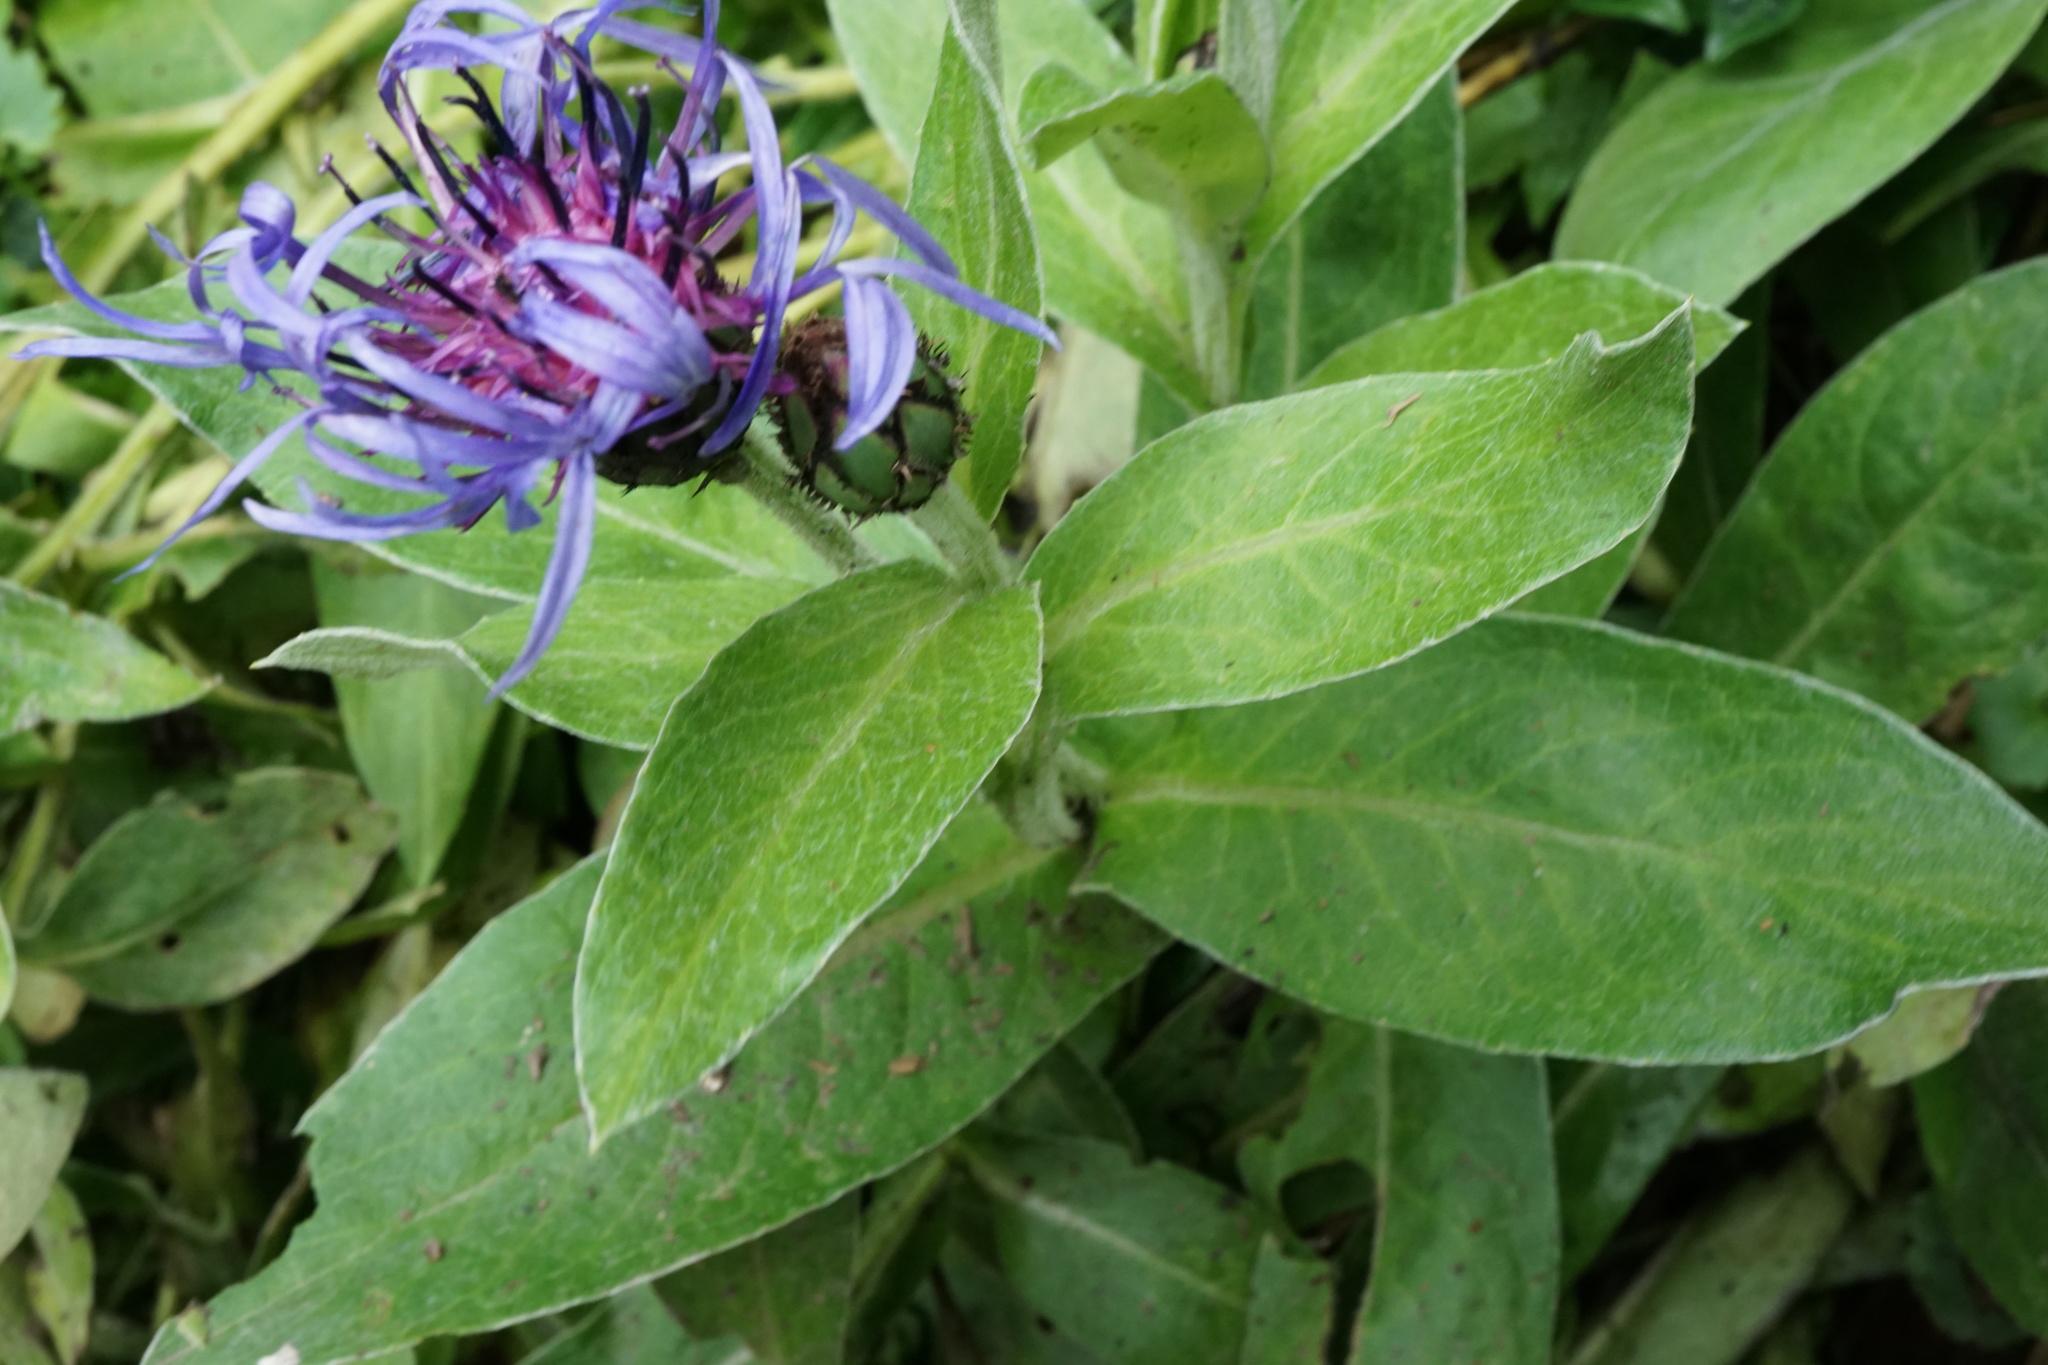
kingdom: Plantae
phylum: Tracheophyta
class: Magnoliopsida
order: Asterales
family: Asteraceae
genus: Centaurea
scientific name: Centaurea montana
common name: Perennial cornflower
